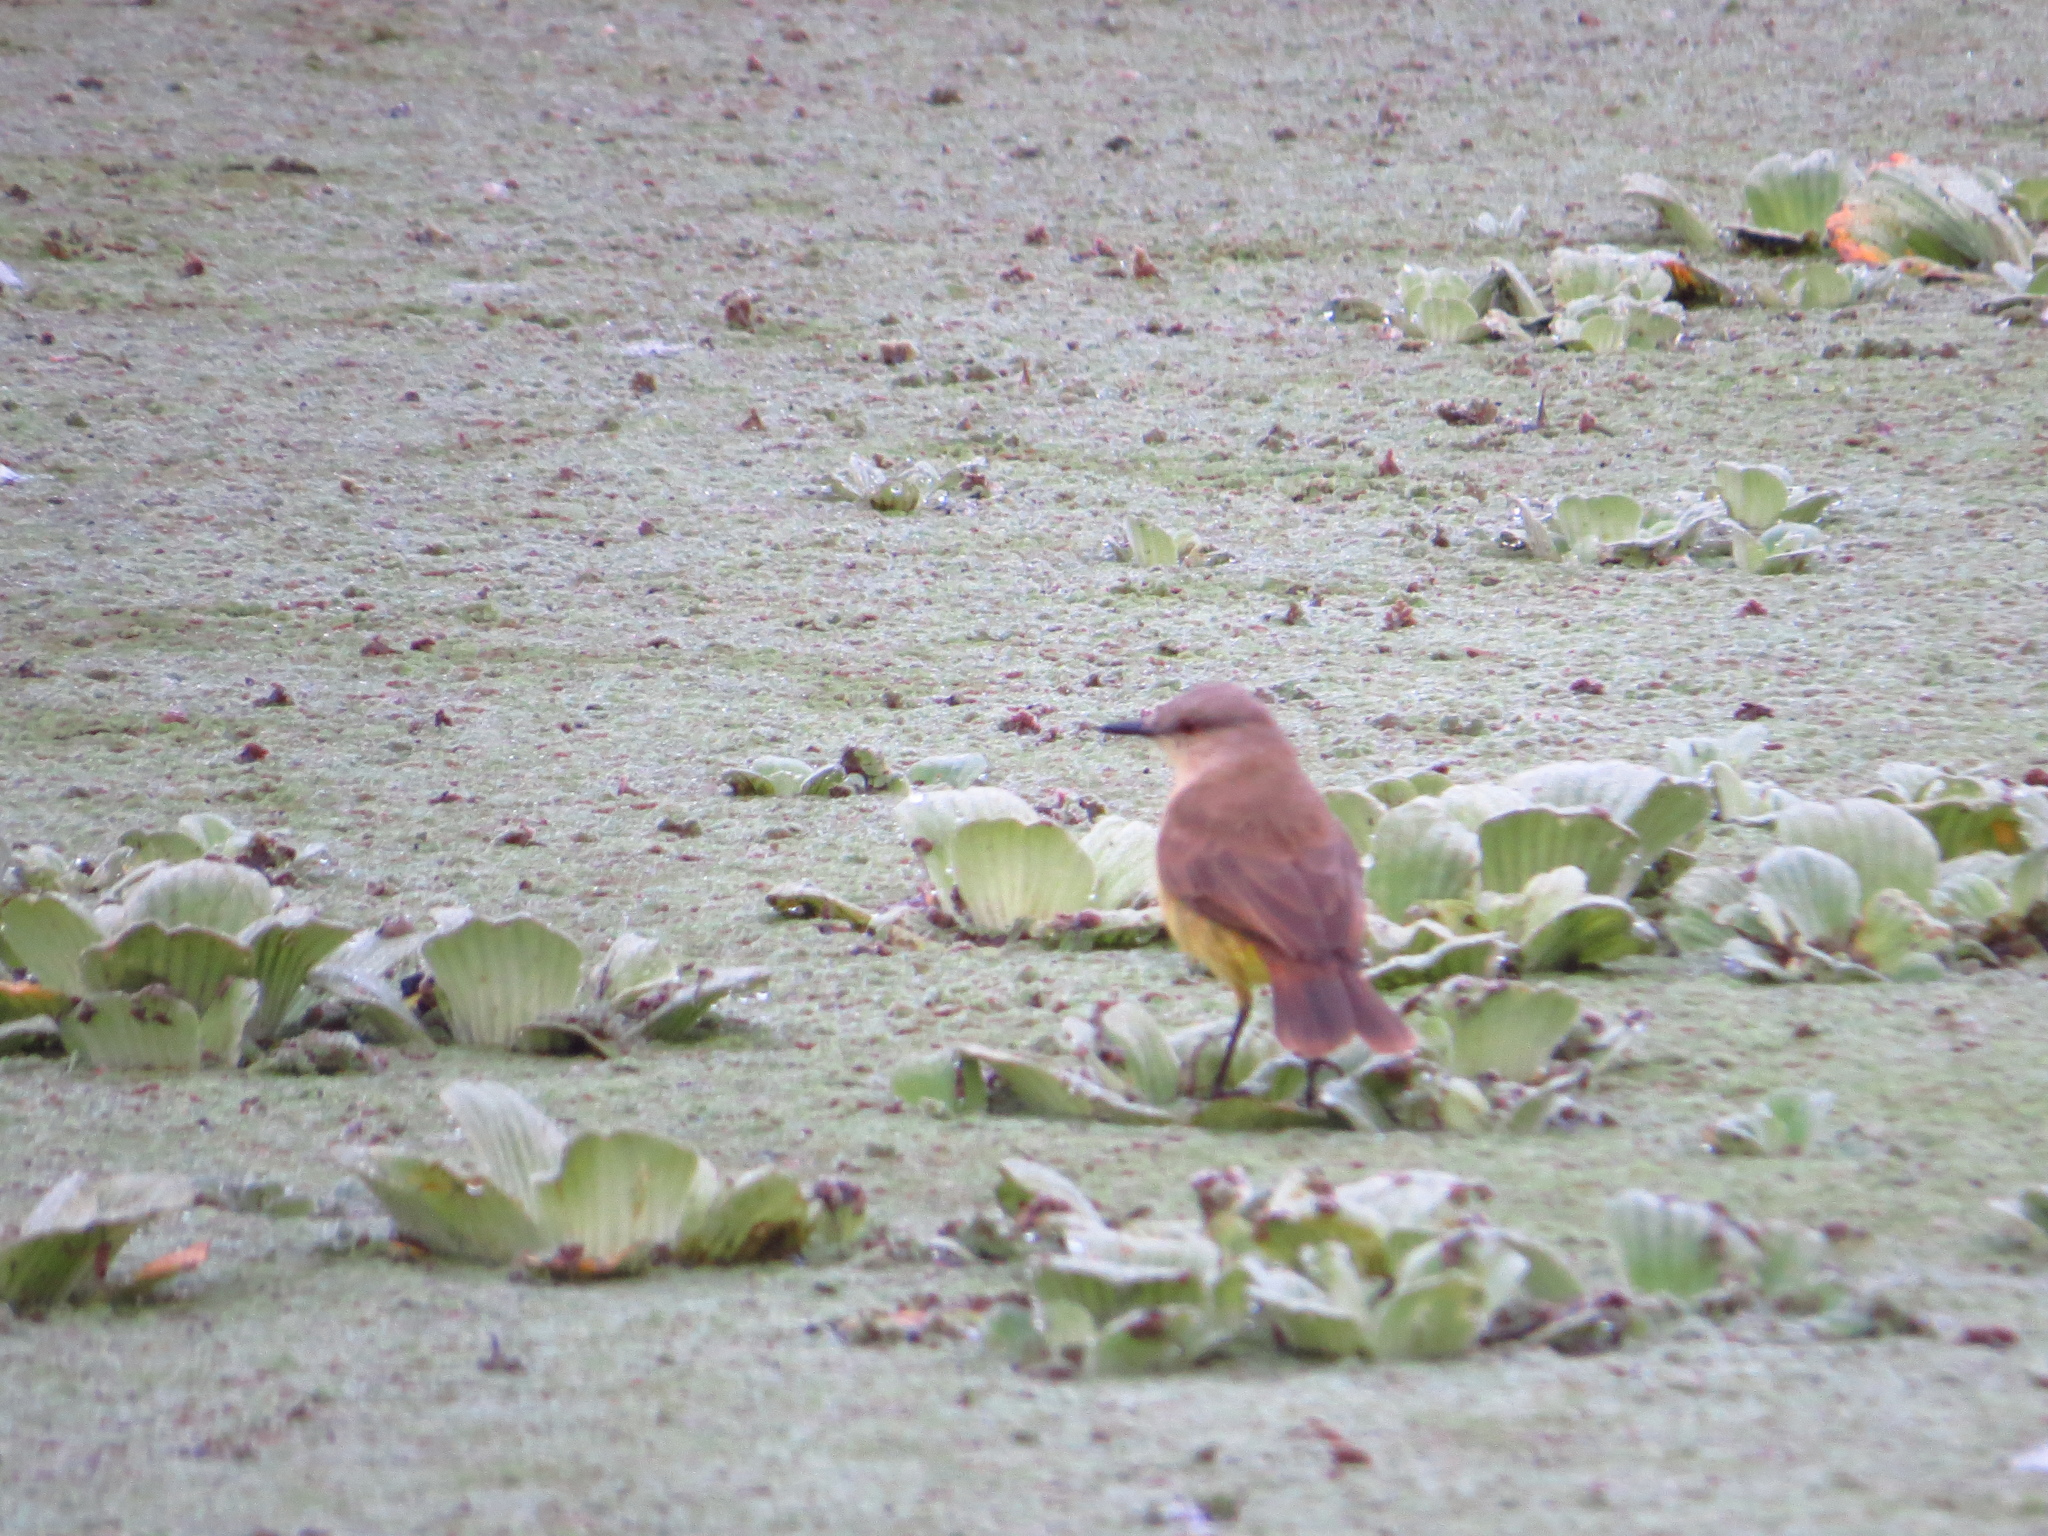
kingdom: Animalia
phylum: Chordata
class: Aves
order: Passeriformes
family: Tyrannidae
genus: Machetornis
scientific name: Machetornis rixosa
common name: Cattle tyrant
